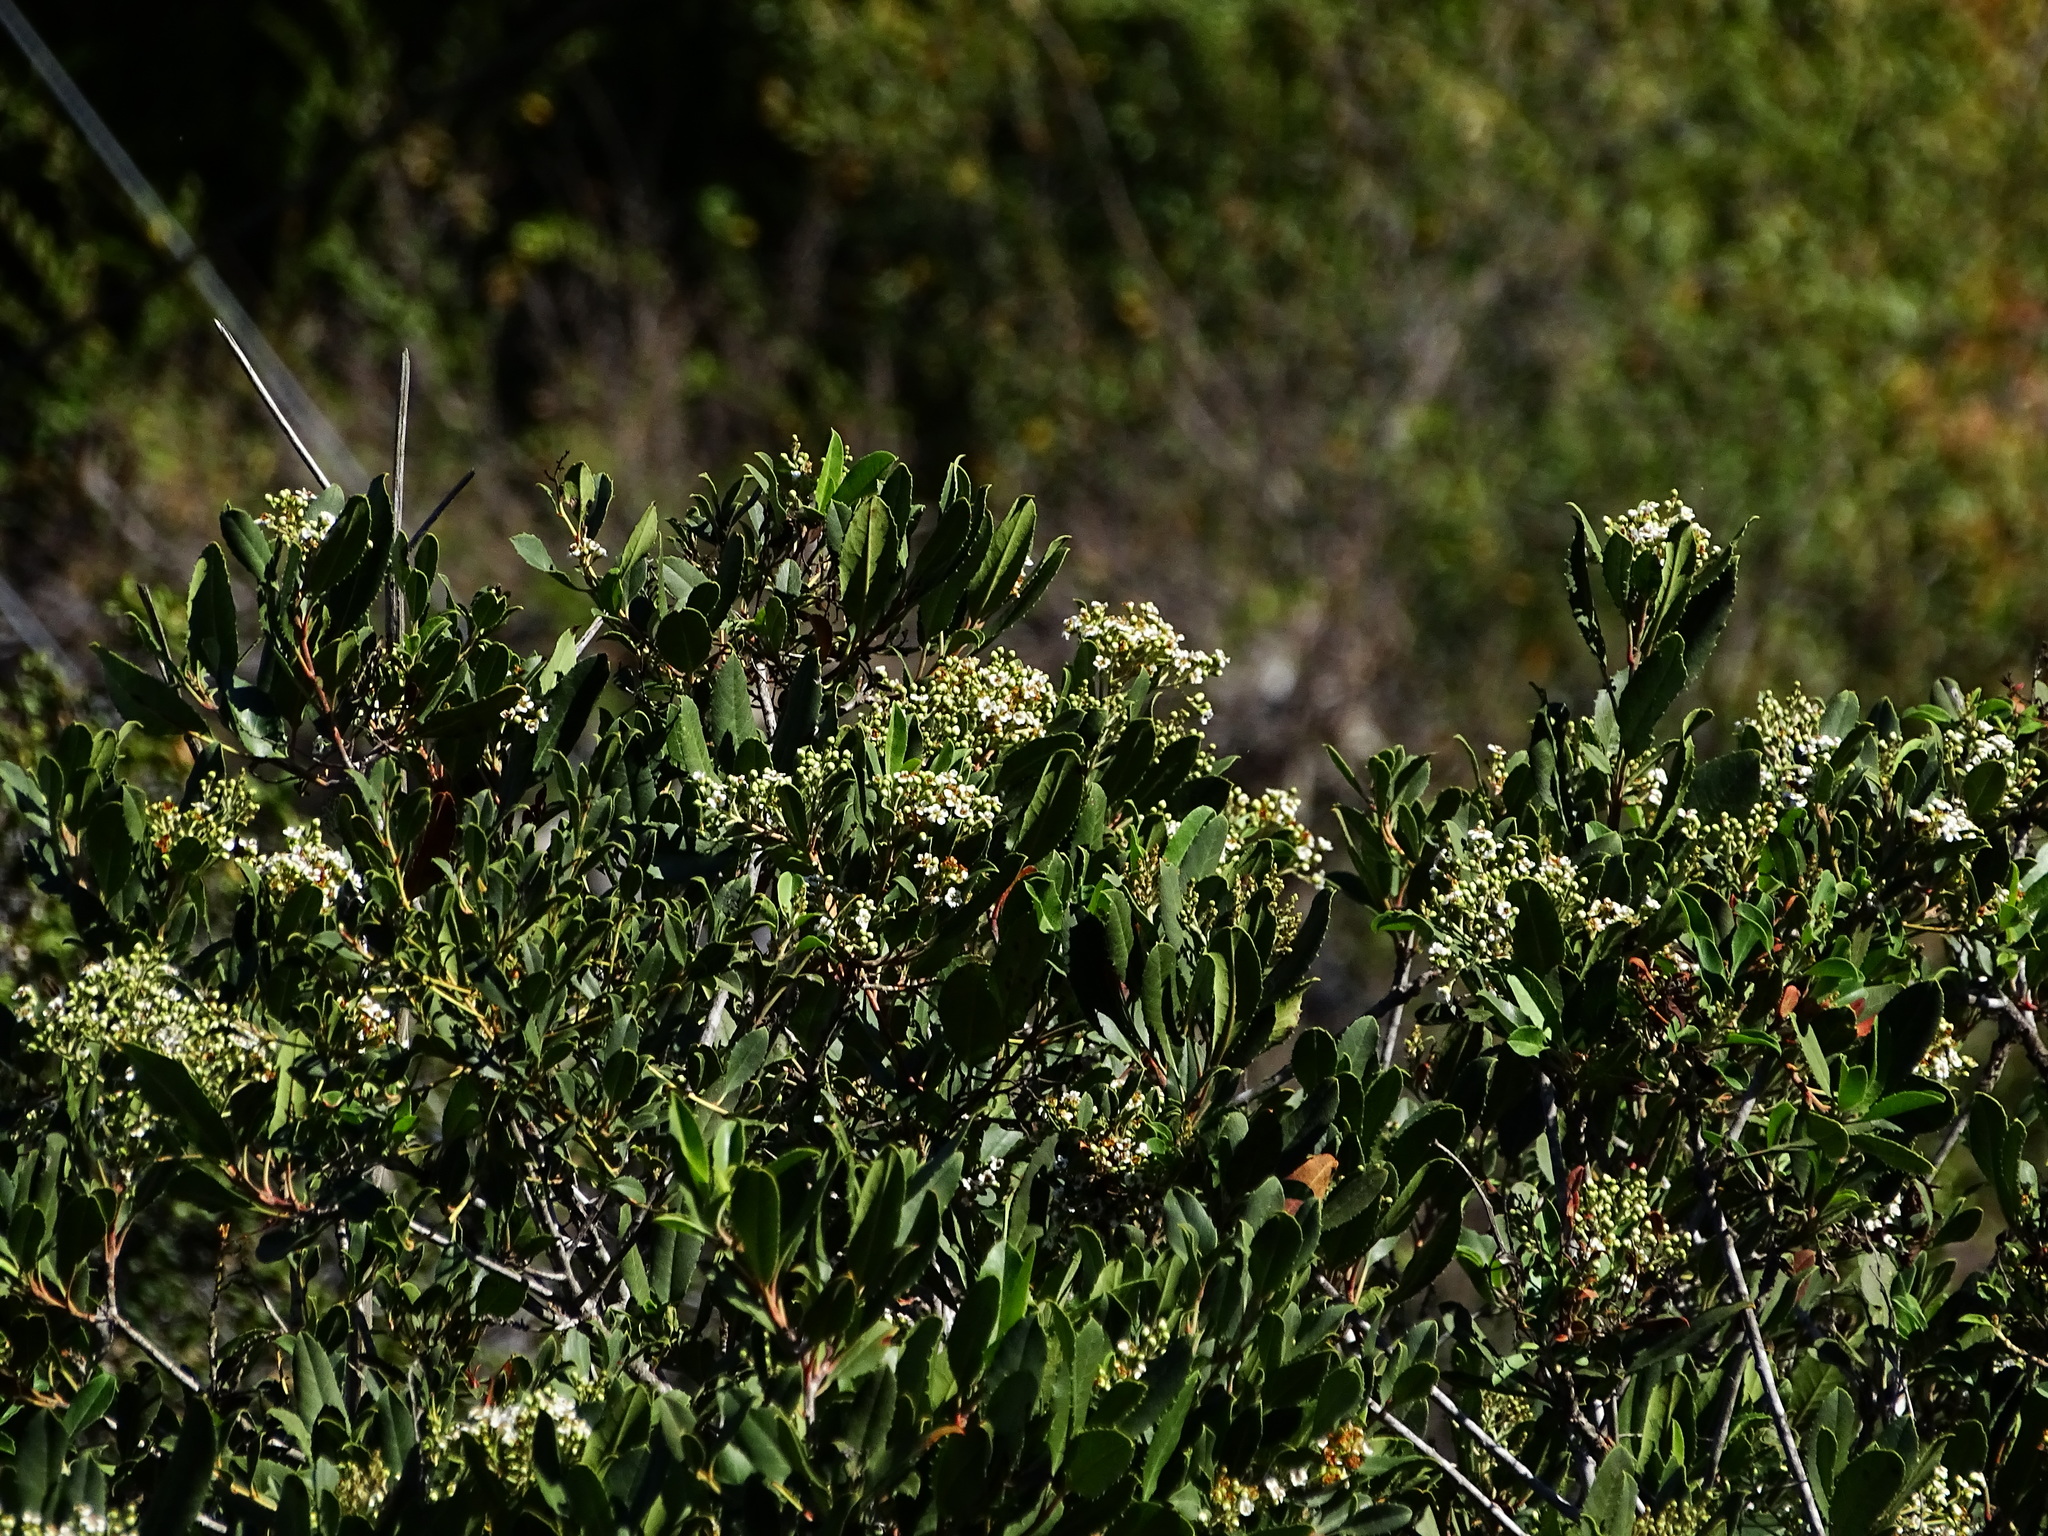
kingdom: Plantae
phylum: Tracheophyta
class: Magnoliopsida
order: Rosales
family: Rosaceae
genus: Heteromeles
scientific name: Heteromeles arbutifolia
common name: California-holly
